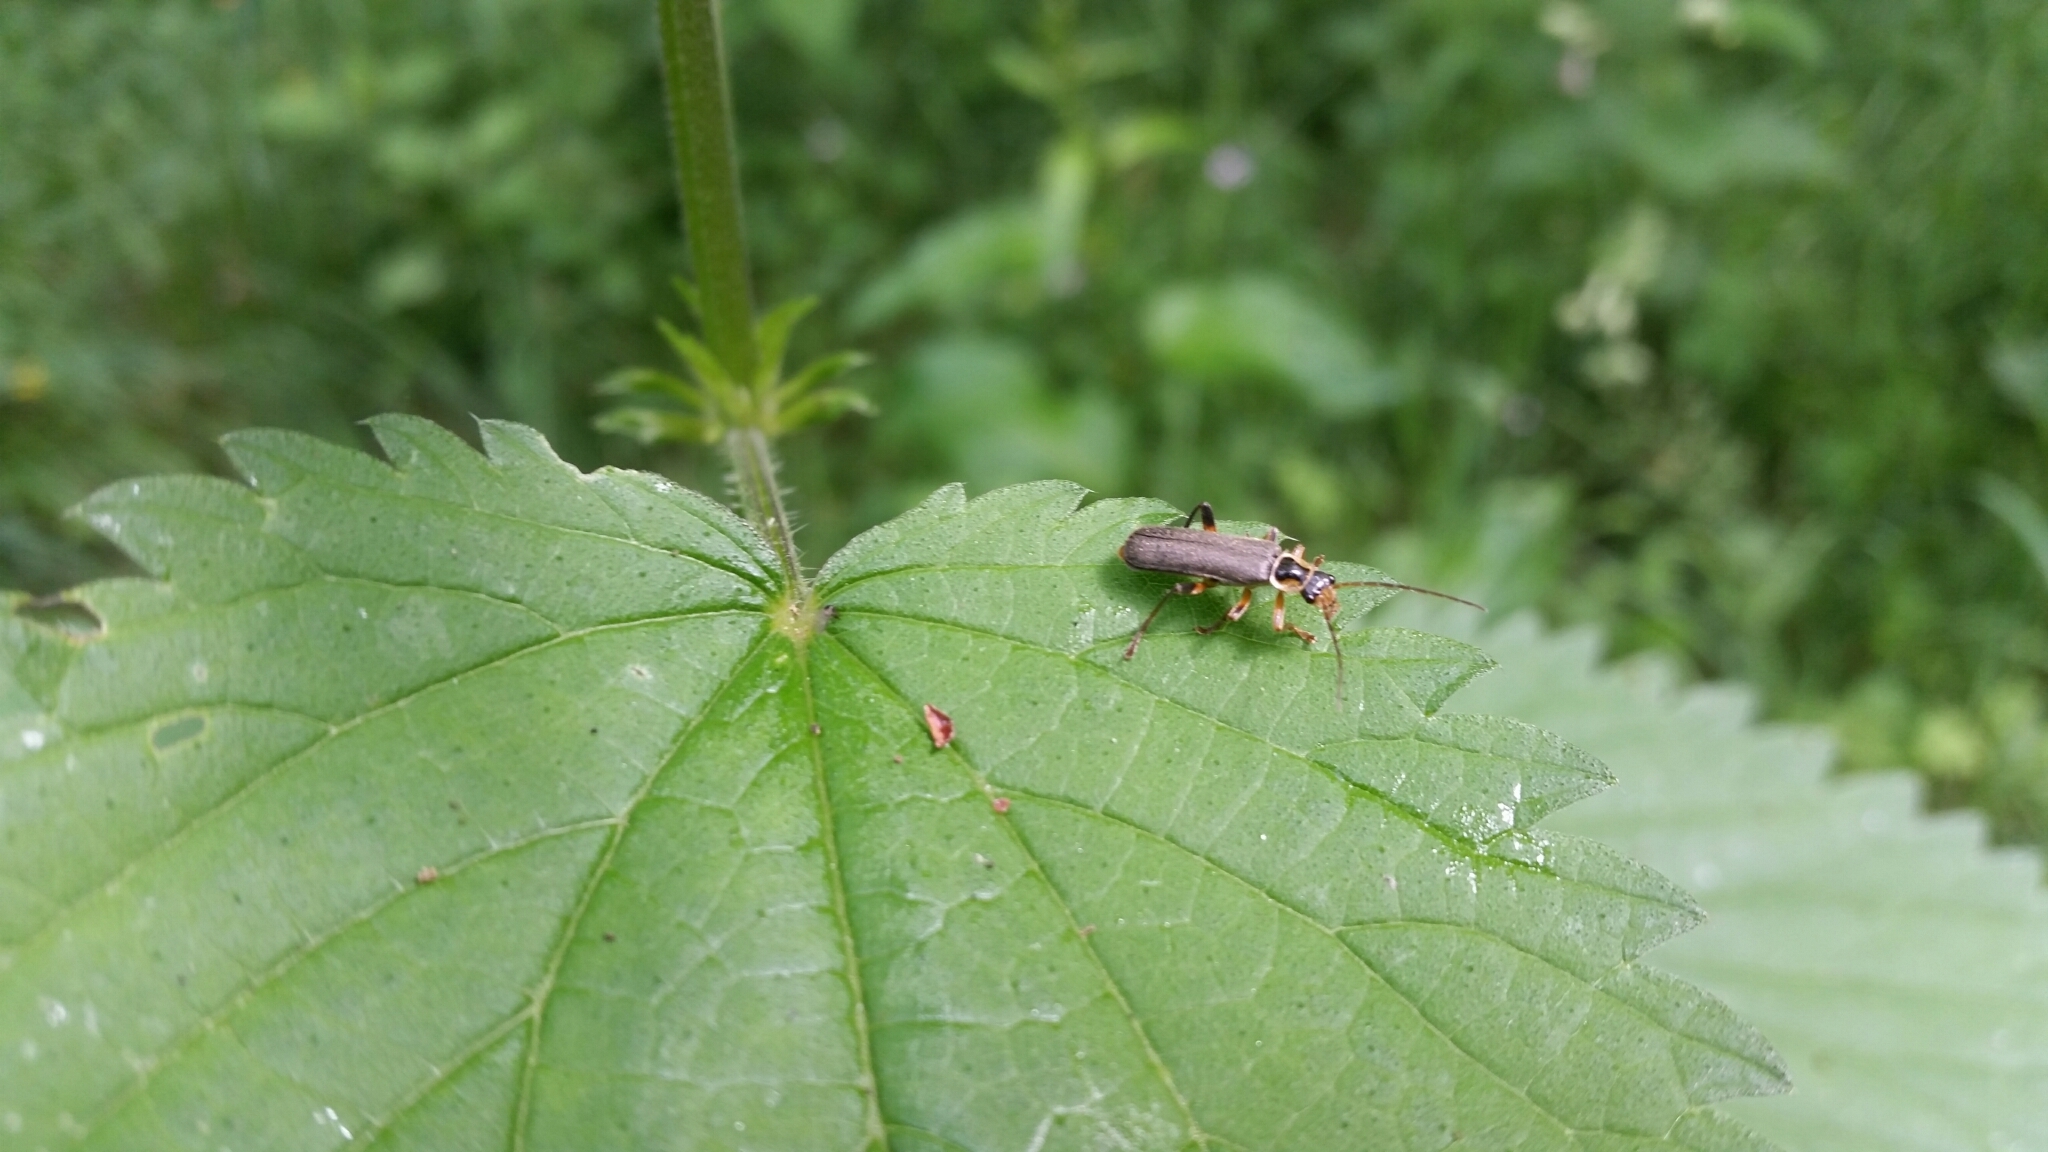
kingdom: Animalia
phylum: Arthropoda
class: Insecta
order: Coleoptera
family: Cantharidae
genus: Cantharis
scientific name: Cantharis nigricans
